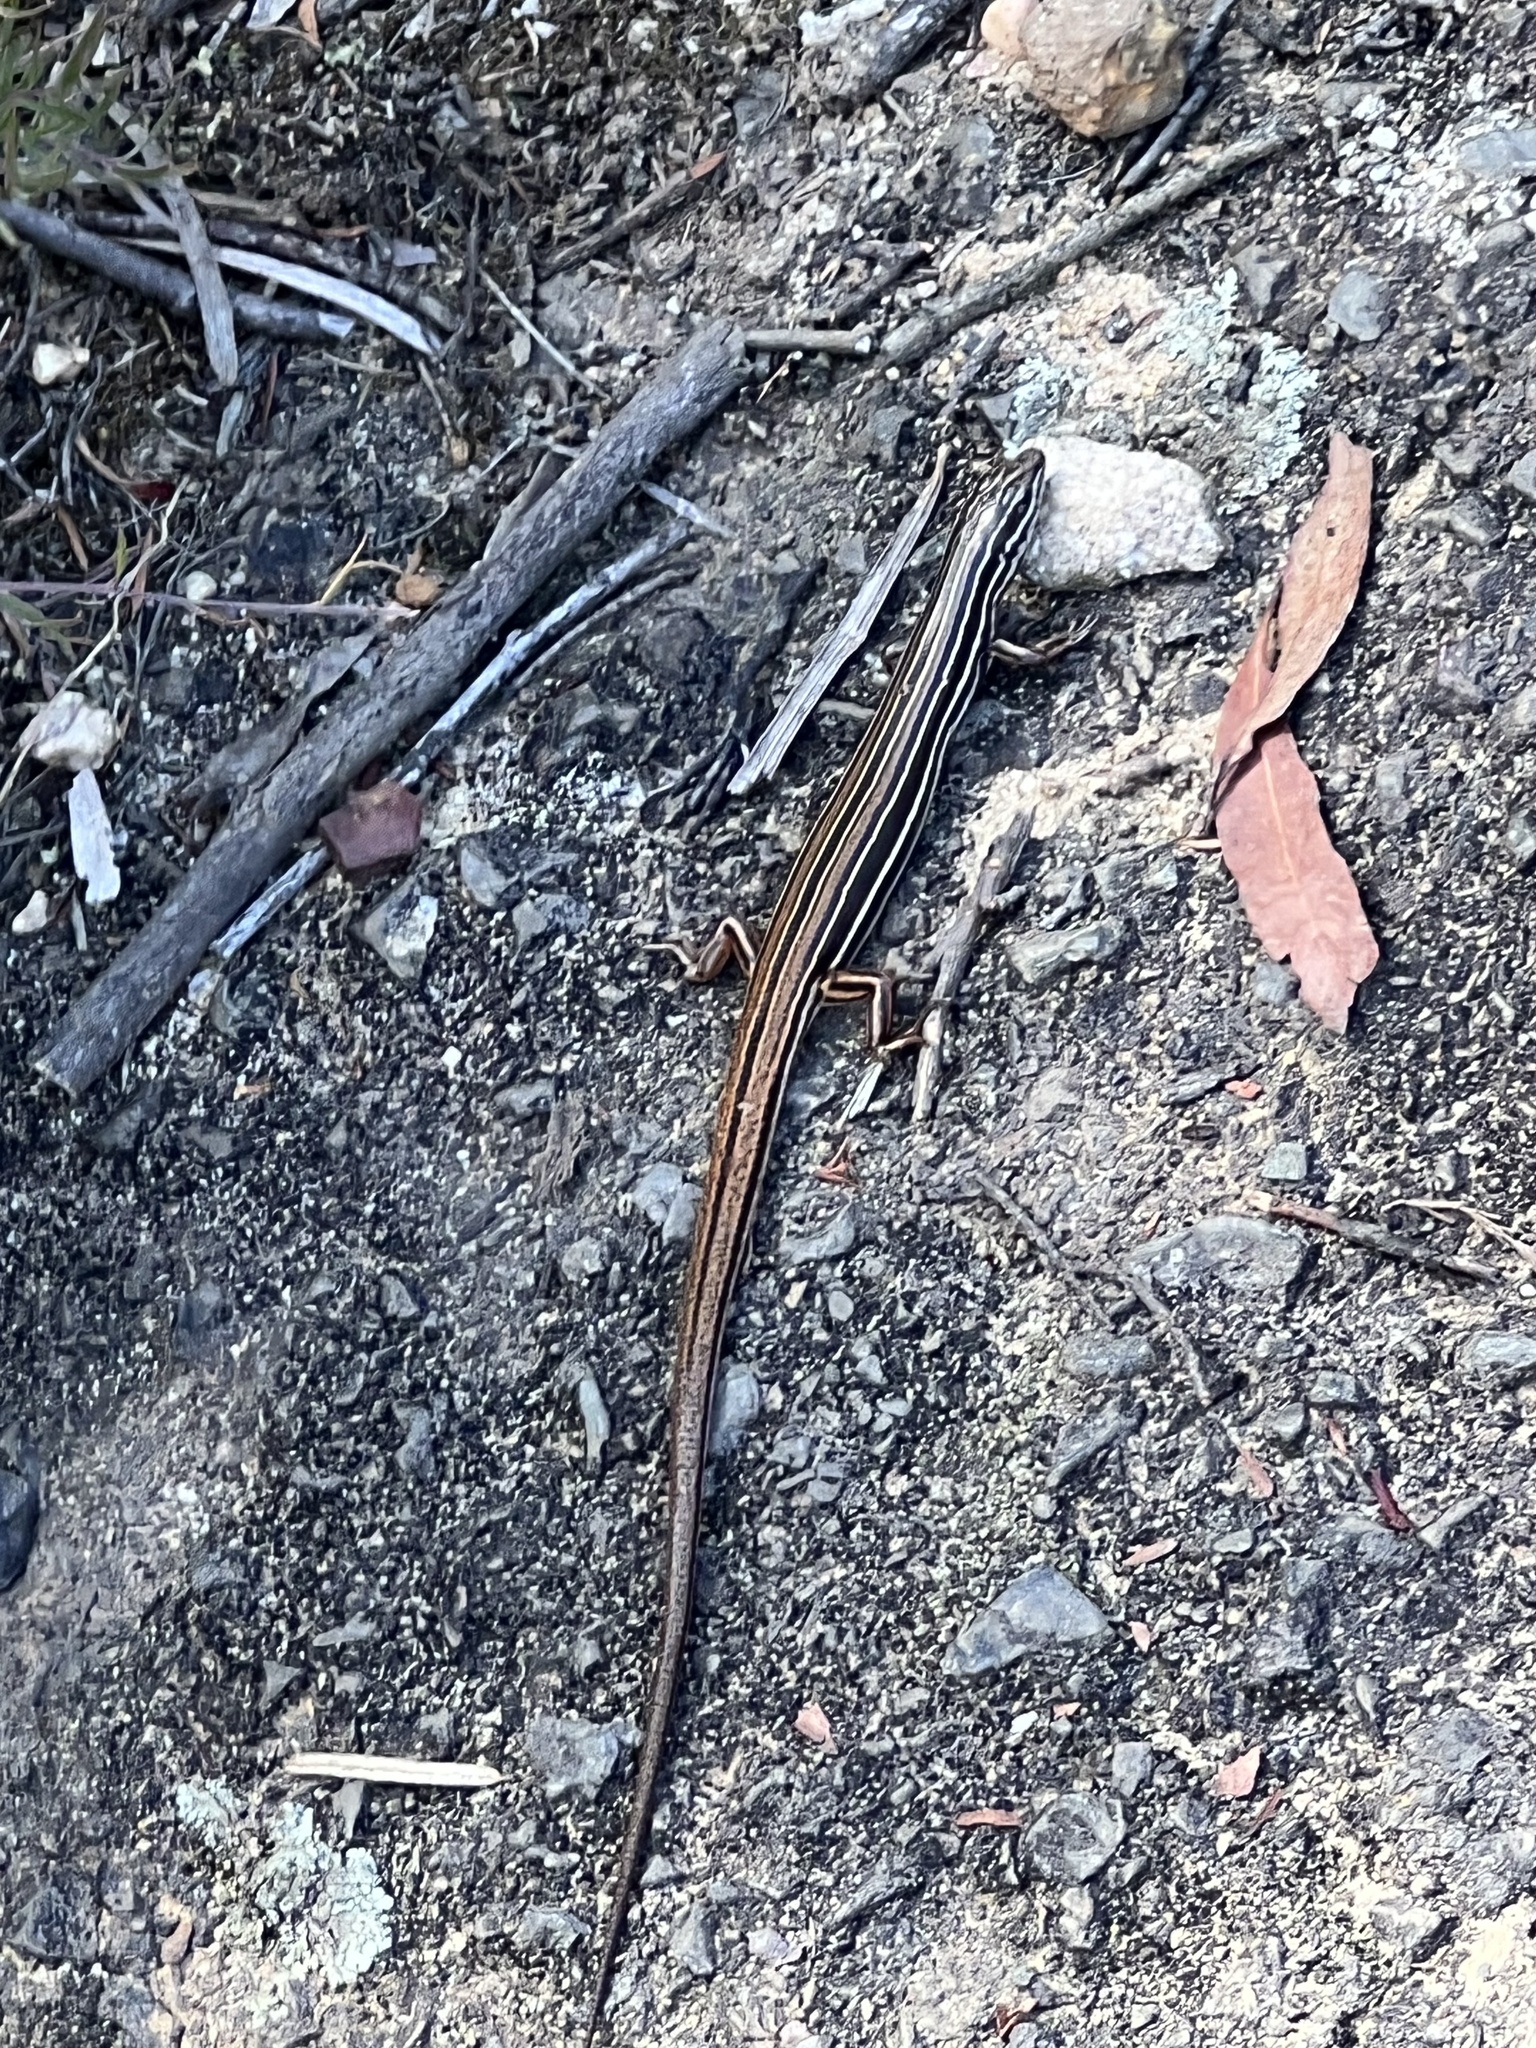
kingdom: Animalia
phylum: Chordata
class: Squamata
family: Scincidae
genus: Ctenotus
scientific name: Ctenotus taeniolatus
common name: Copper-tailed skink
